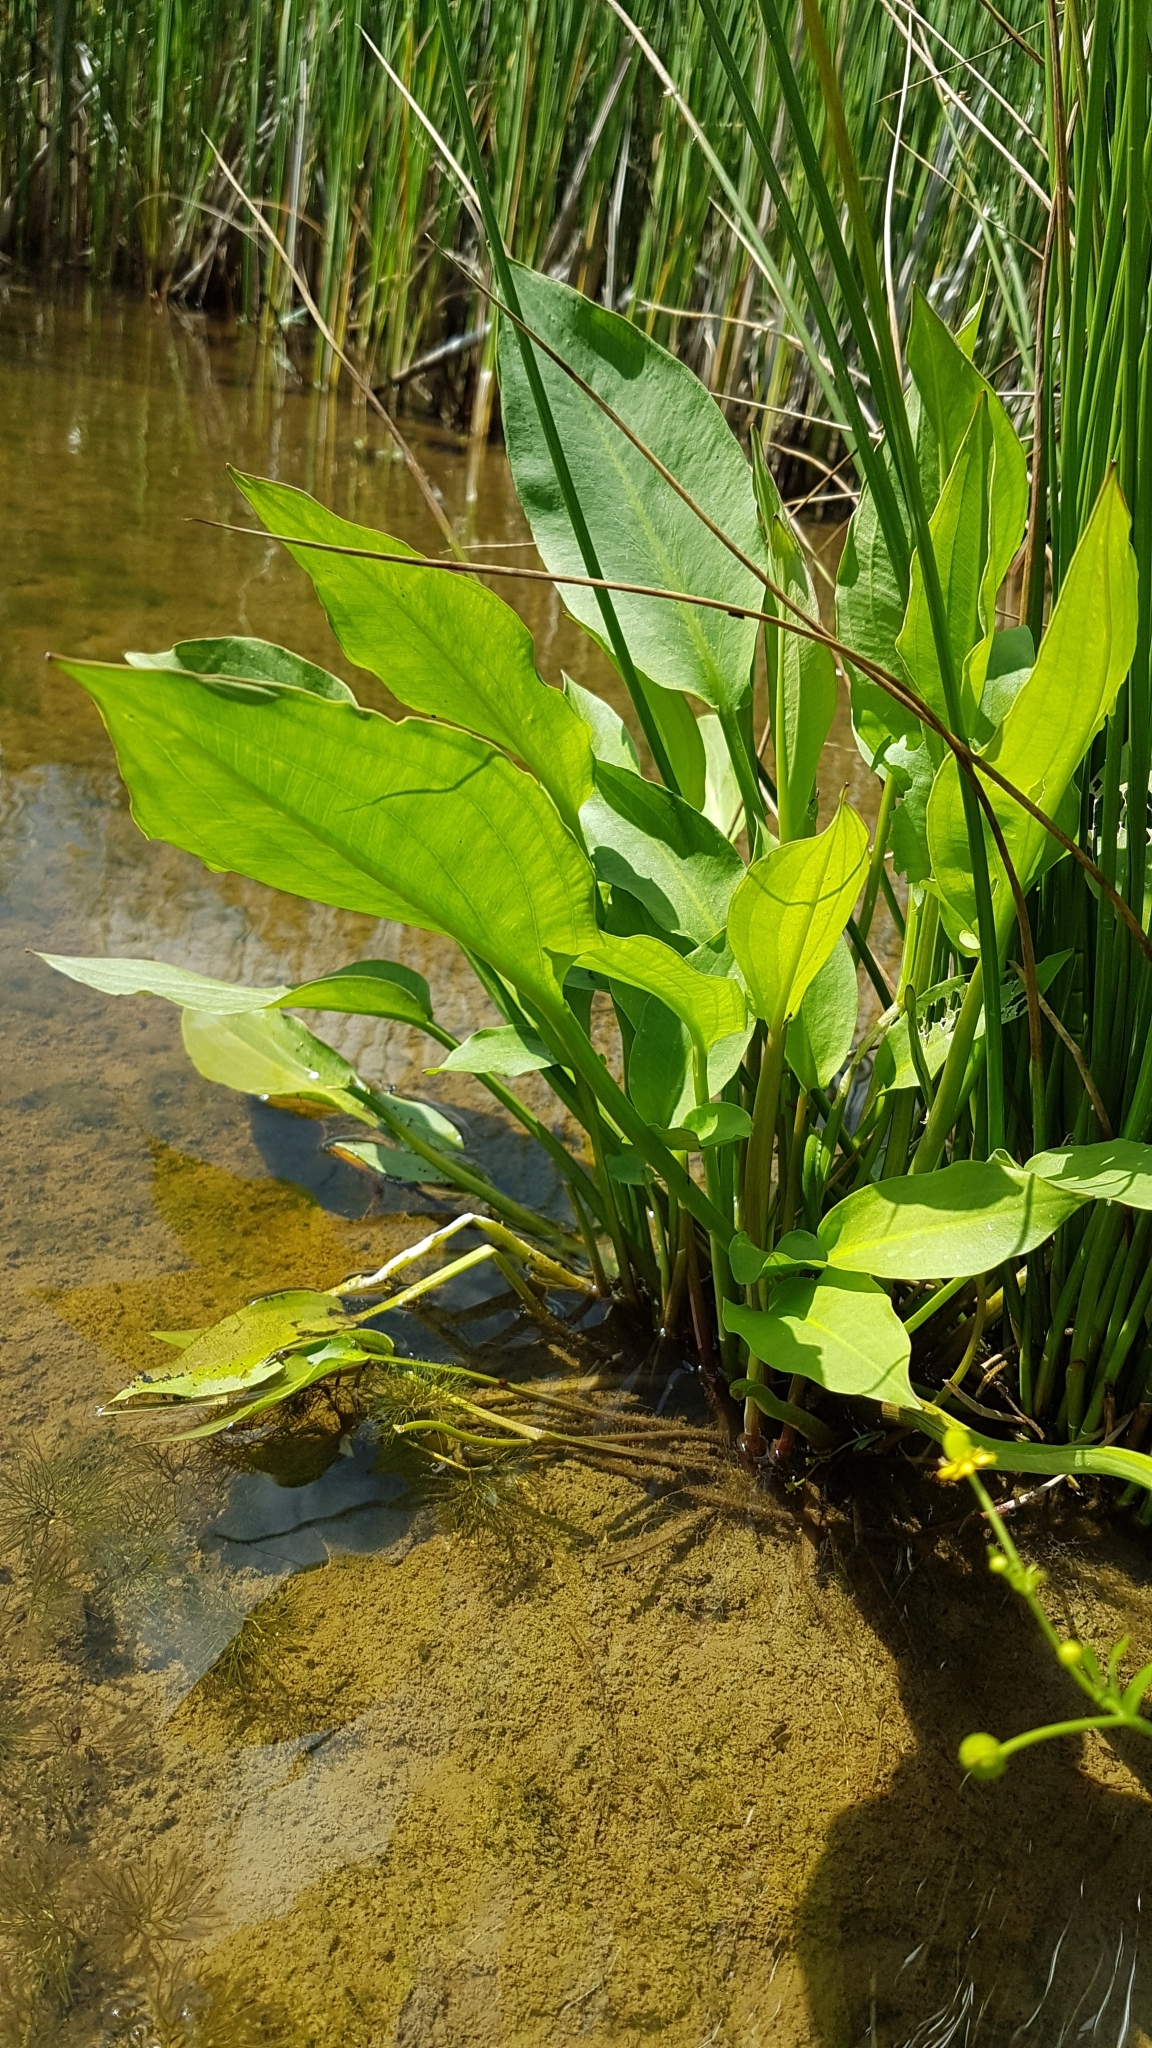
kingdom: Plantae
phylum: Tracheophyta
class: Liliopsida
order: Alismatales
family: Alismataceae
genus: Alisma
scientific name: Alisma plantago-aquatica
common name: Water-plantain
